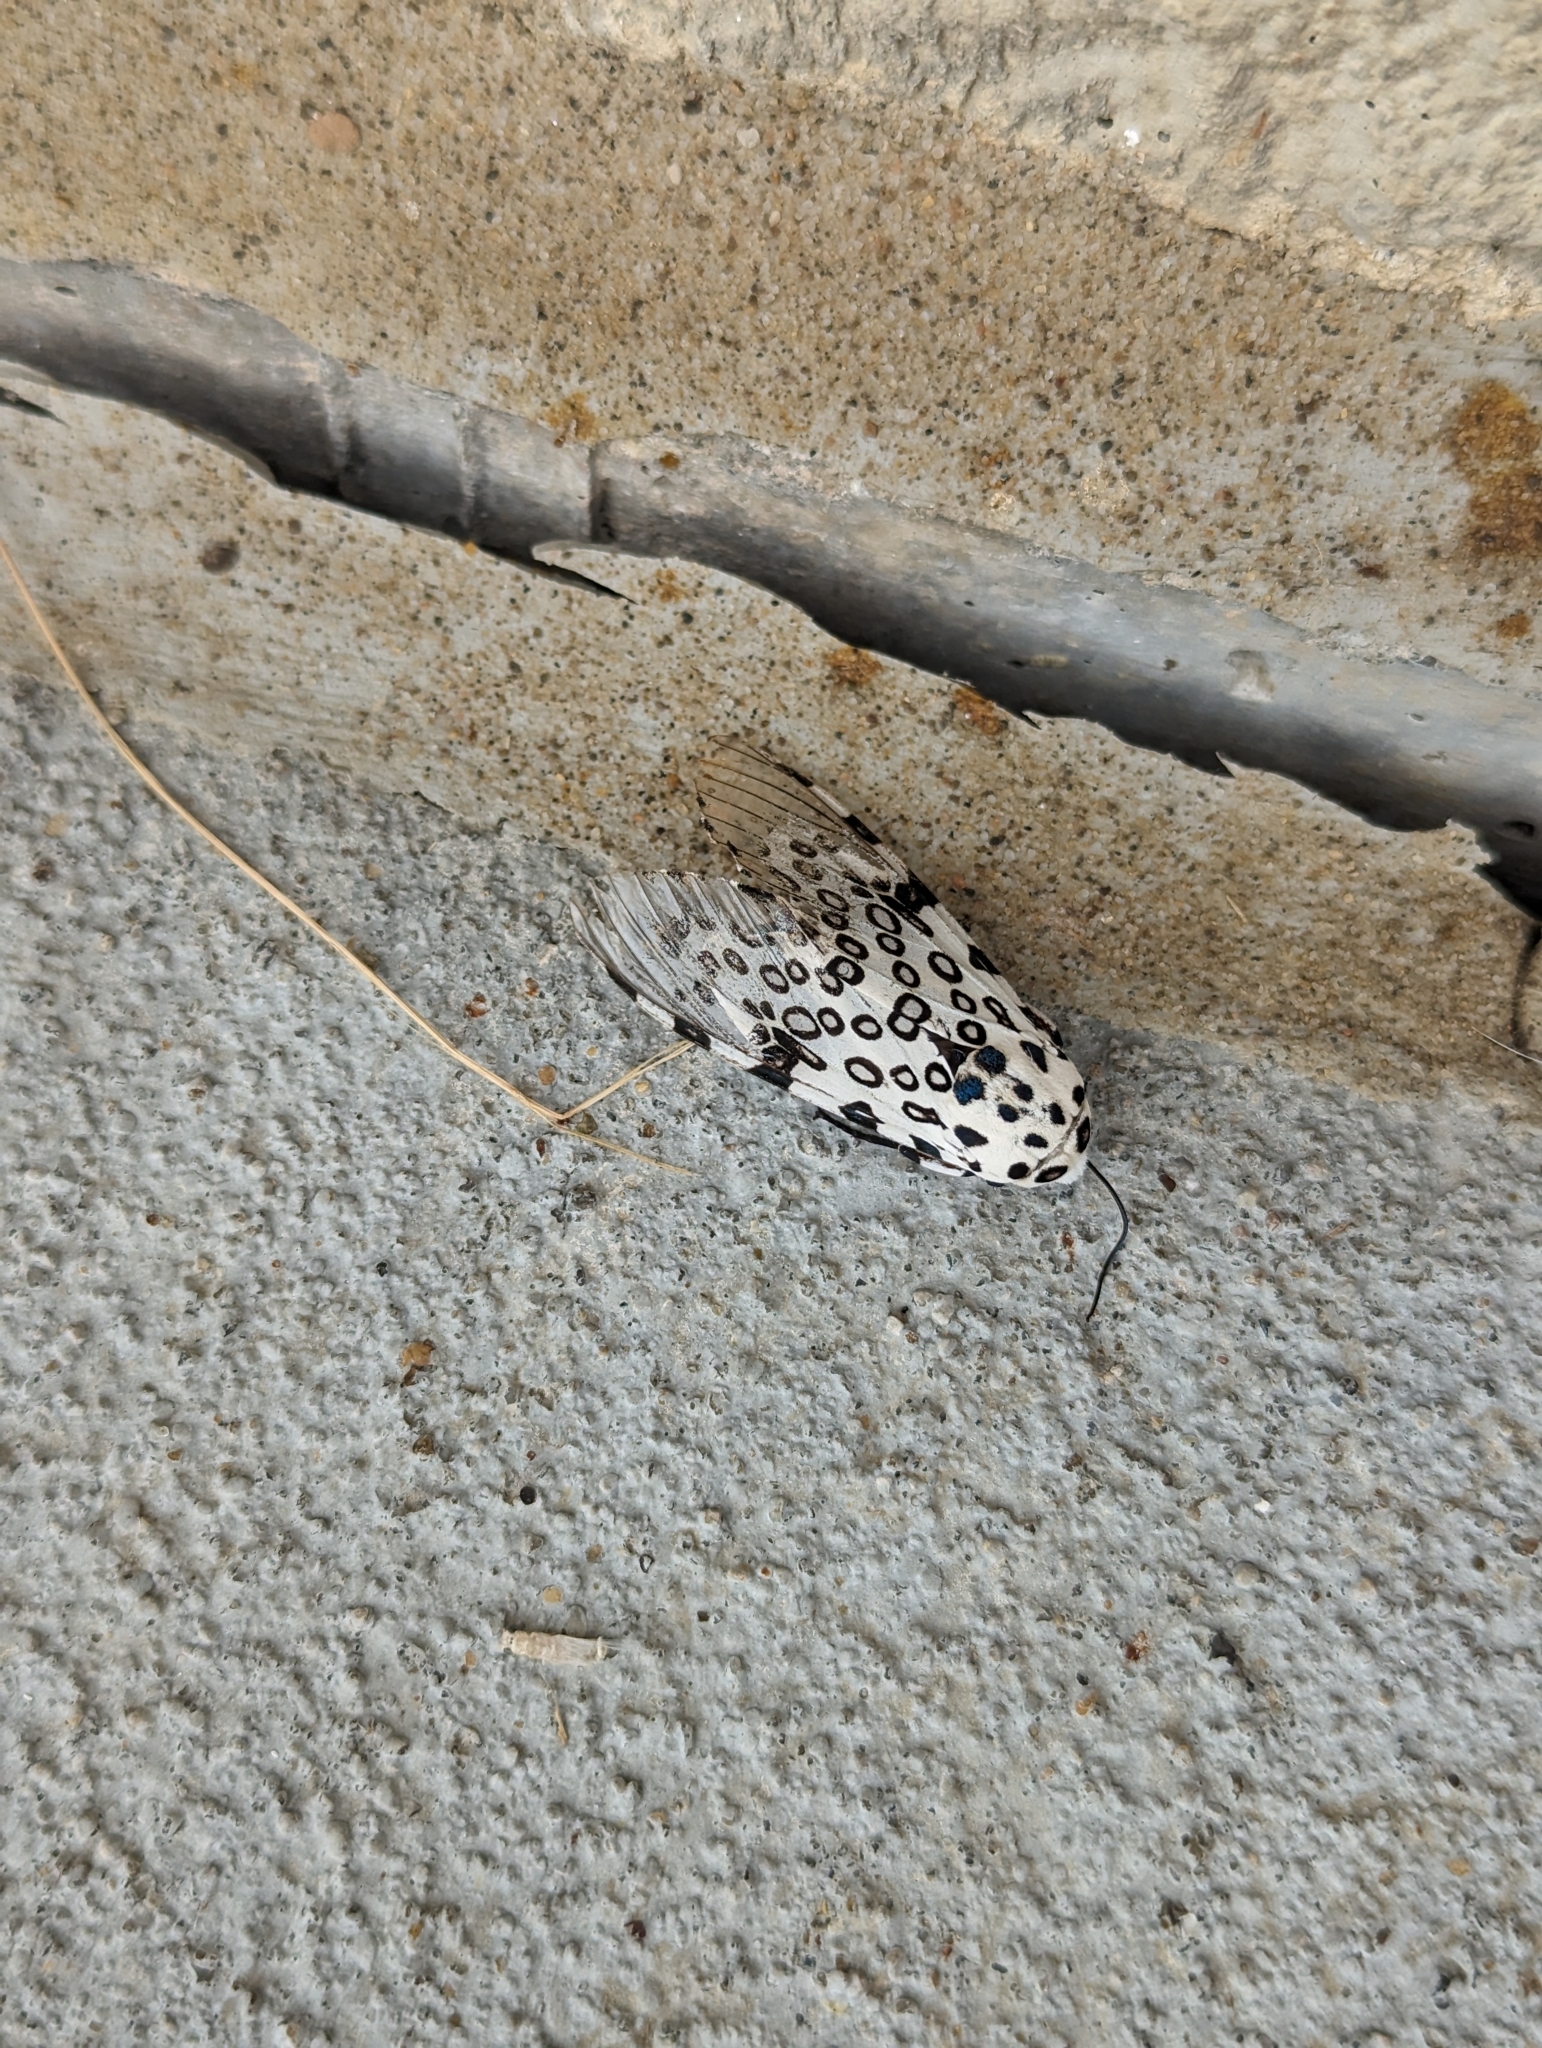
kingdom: Animalia
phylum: Arthropoda
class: Insecta
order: Lepidoptera
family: Erebidae
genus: Hypercompe
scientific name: Hypercompe scribonia
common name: Giant leopard moth
